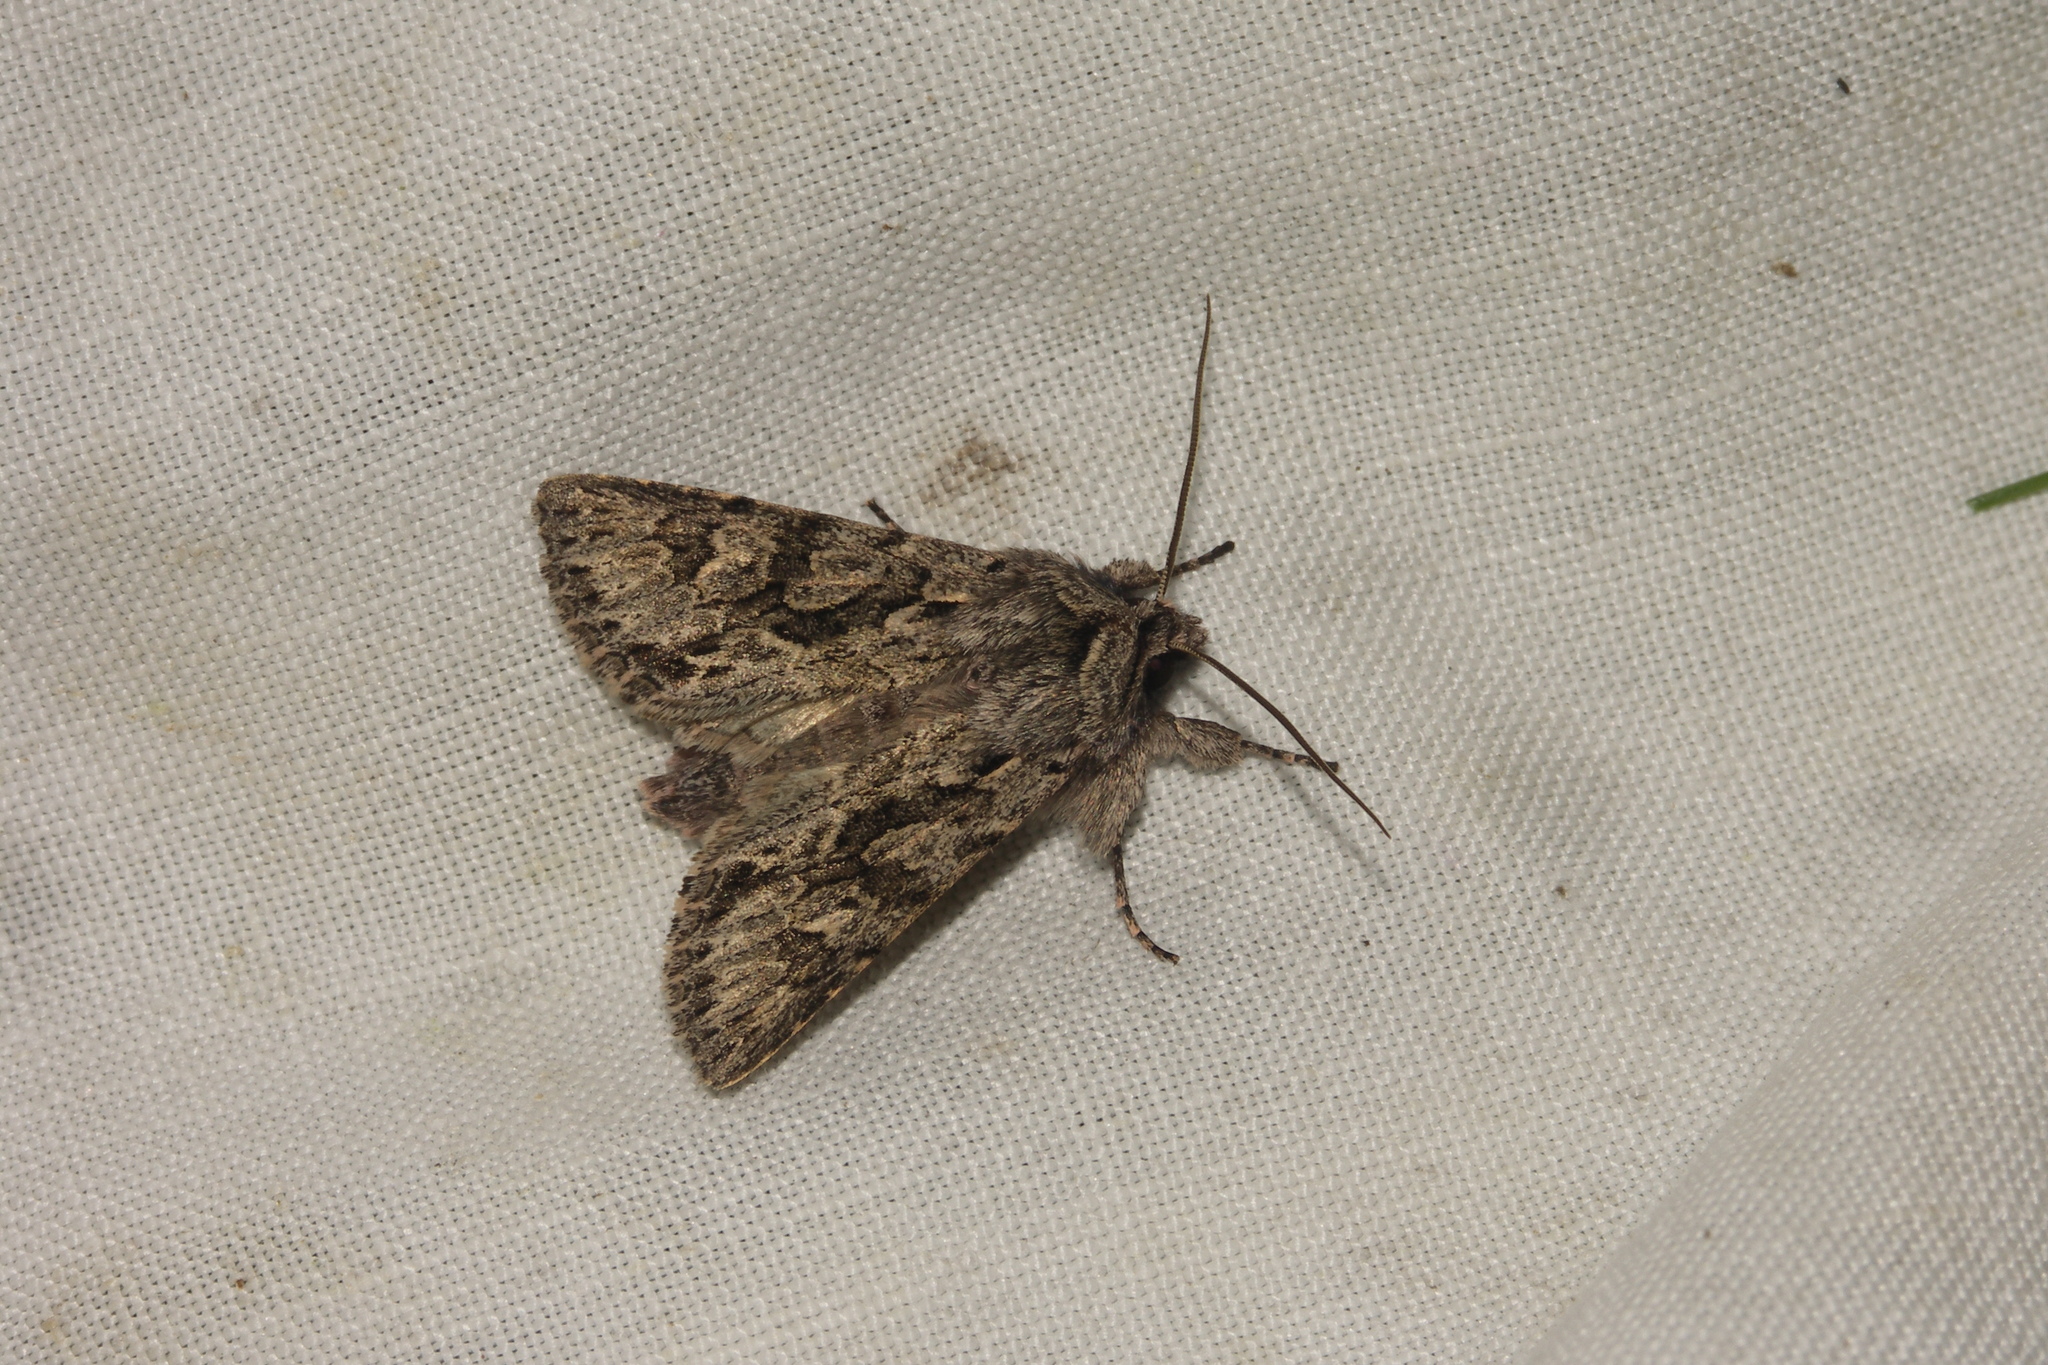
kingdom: Animalia
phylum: Arthropoda
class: Insecta
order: Lepidoptera
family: Noctuidae
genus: Xylocampa
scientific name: Xylocampa areola
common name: Early grey
